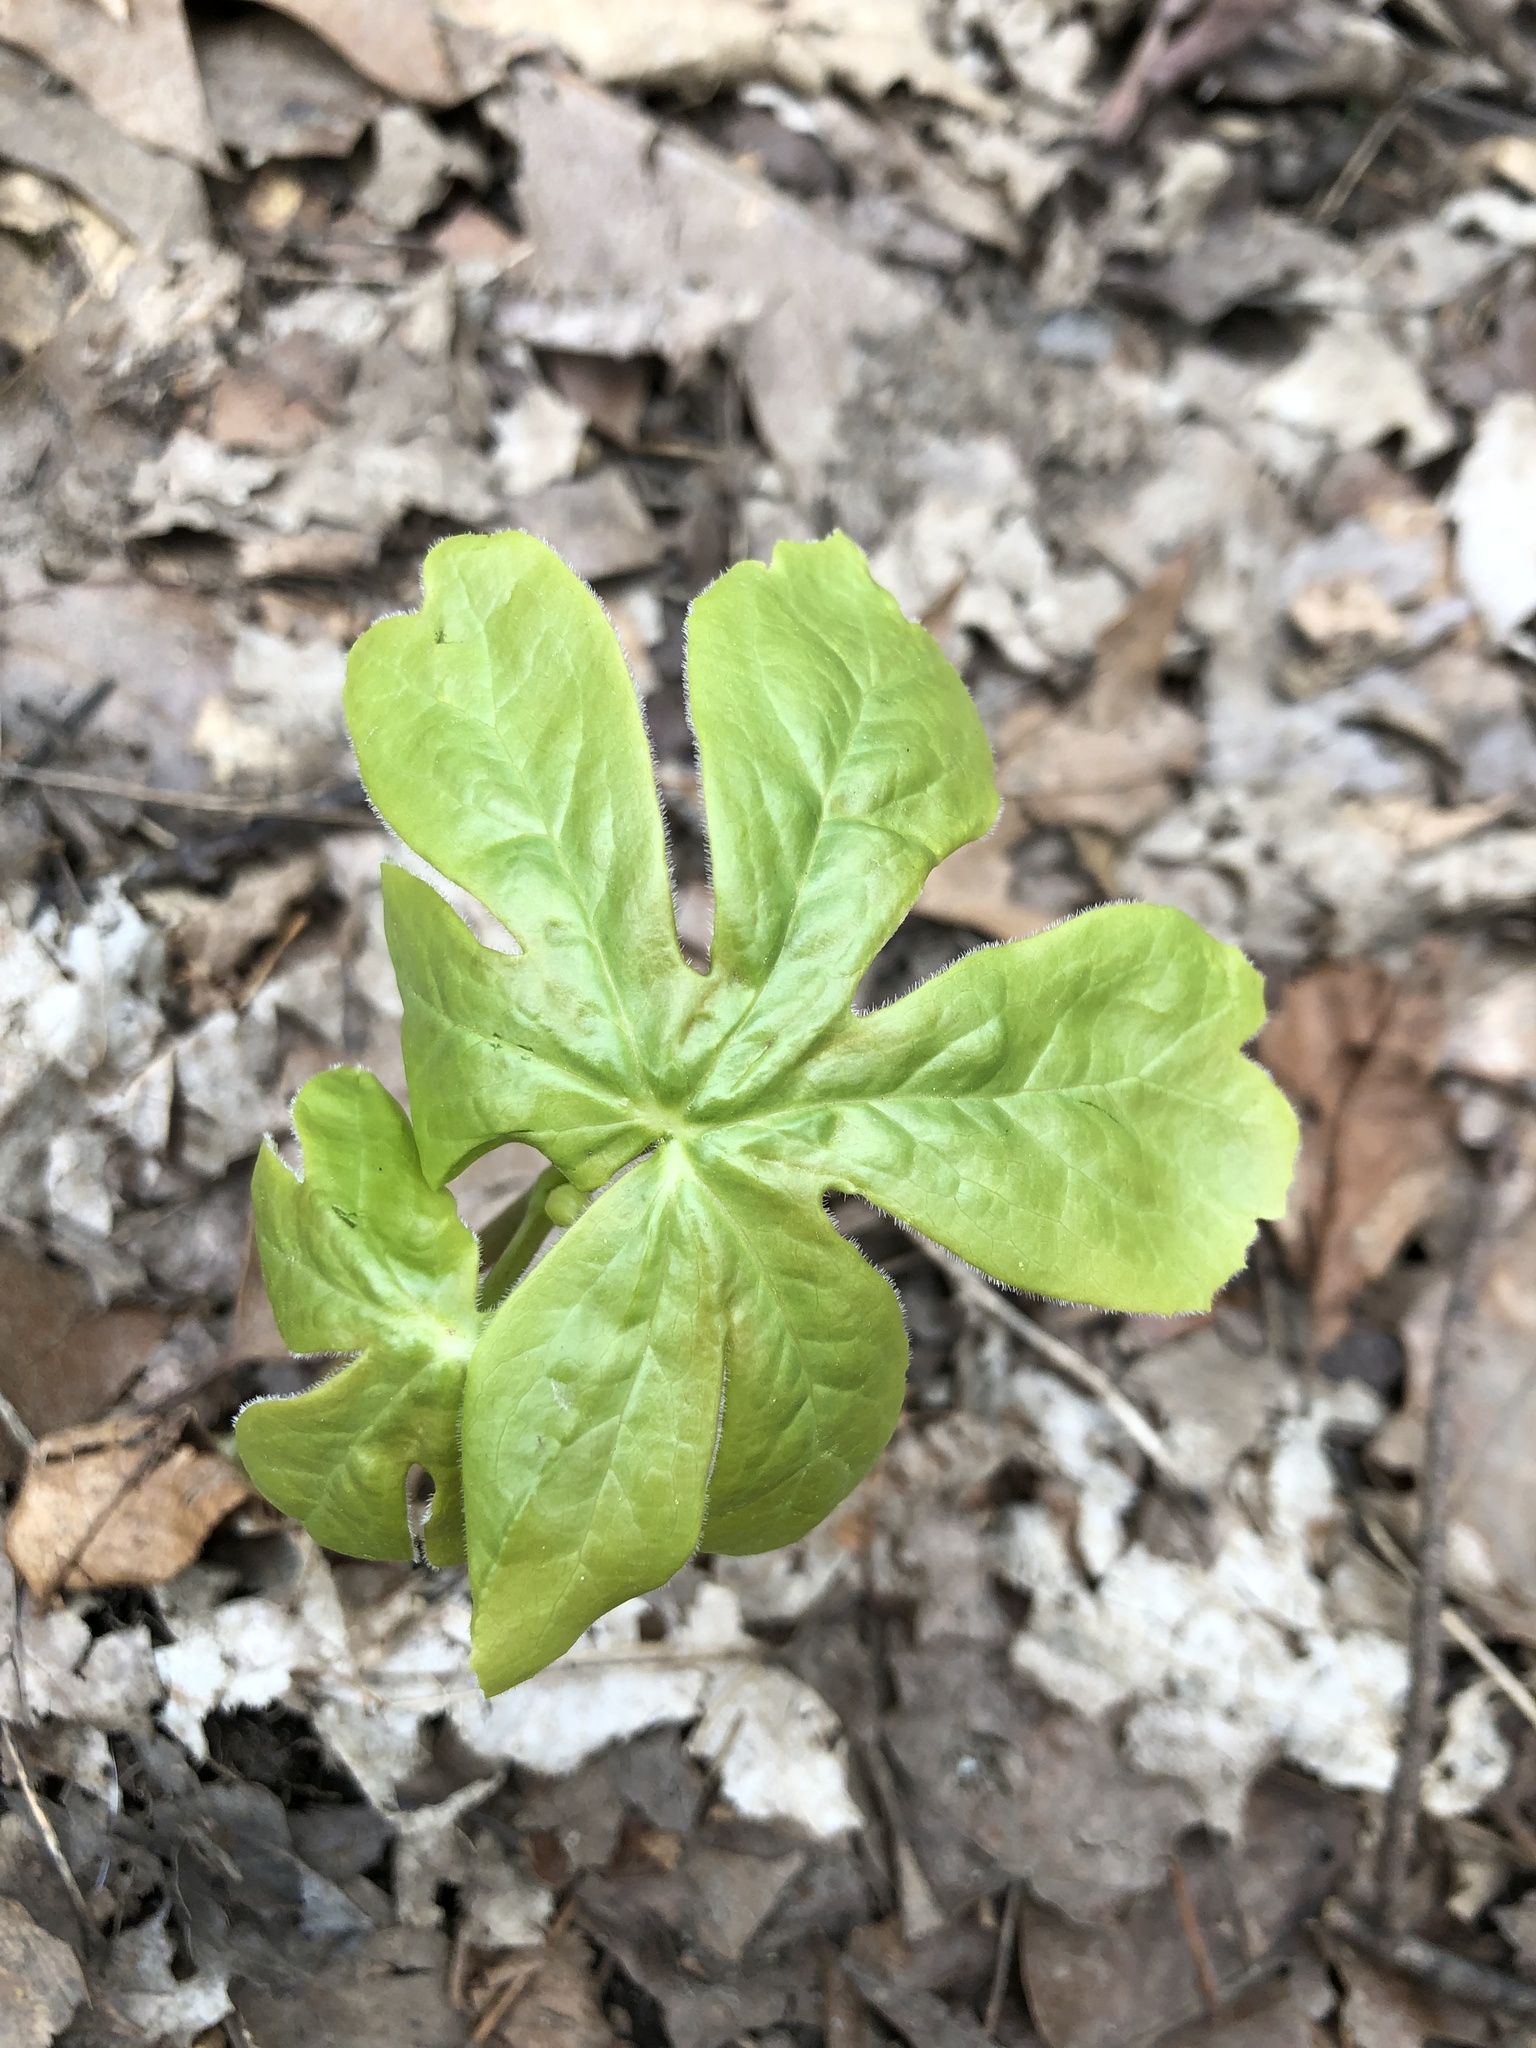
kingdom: Plantae
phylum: Tracheophyta
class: Magnoliopsida
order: Ranunculales
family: Berberidaceae
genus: Podophyllum
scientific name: Podophyllum peltatum
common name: Wild mandrake
